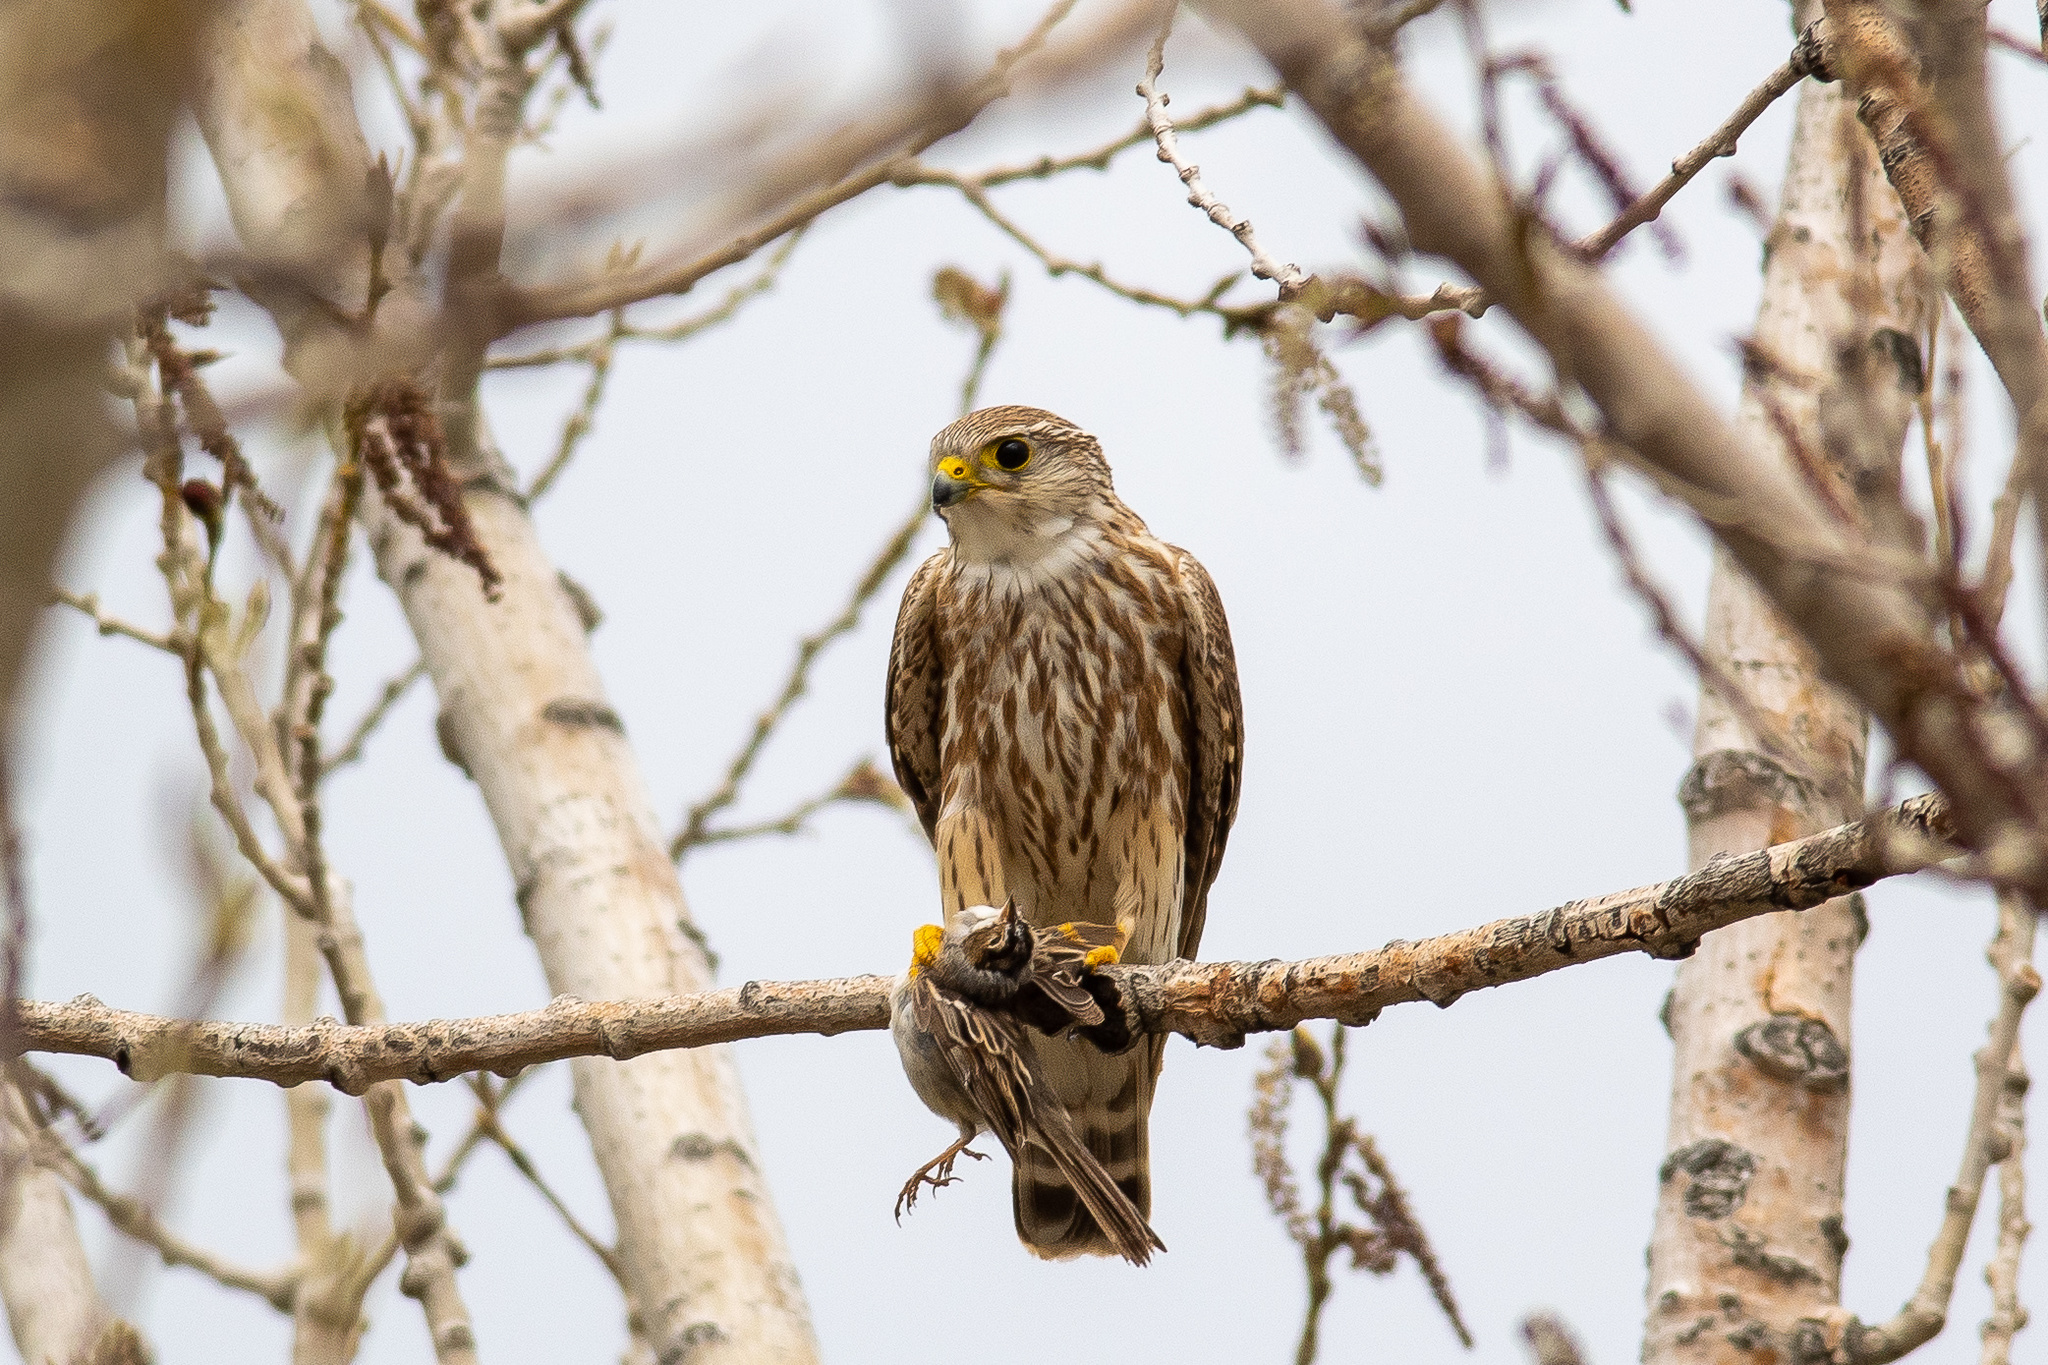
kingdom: Animalia
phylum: Chordata
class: Aves
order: Falconiformes
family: Falconidae
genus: Falco
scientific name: Falco columbarius
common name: Merlin
